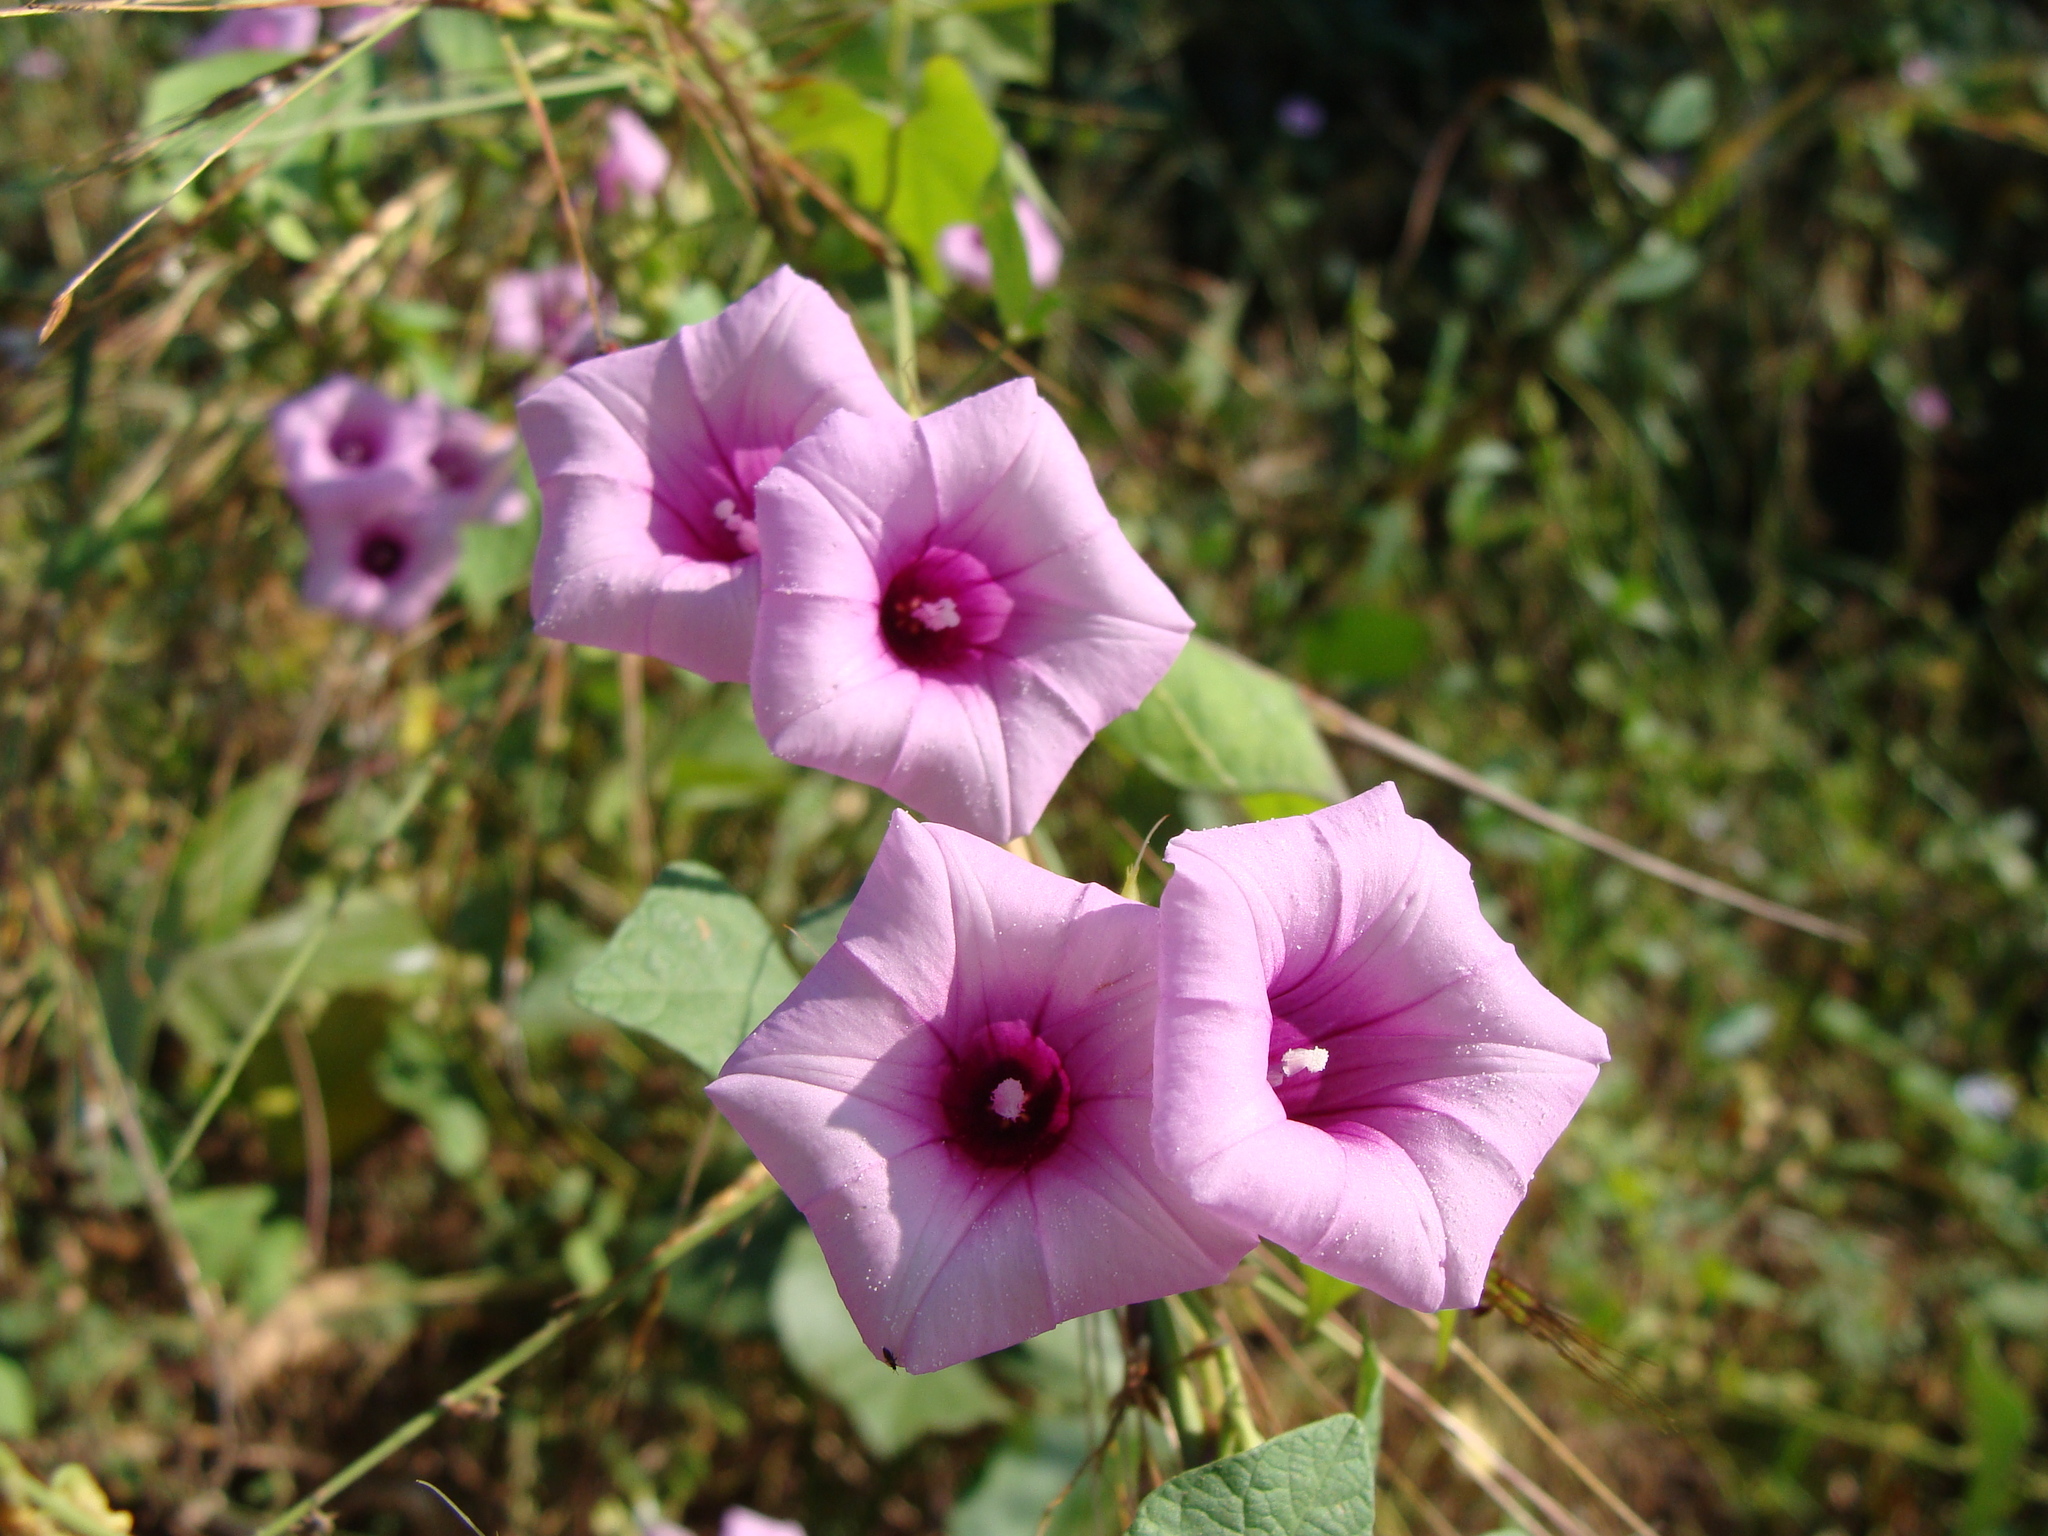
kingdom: Plantae
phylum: Tracheophyta
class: Magnoliopsida
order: Solanales
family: Convolvulaceae
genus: Ipomoea
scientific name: Ipomoea trifida
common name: Cotton morningglory
